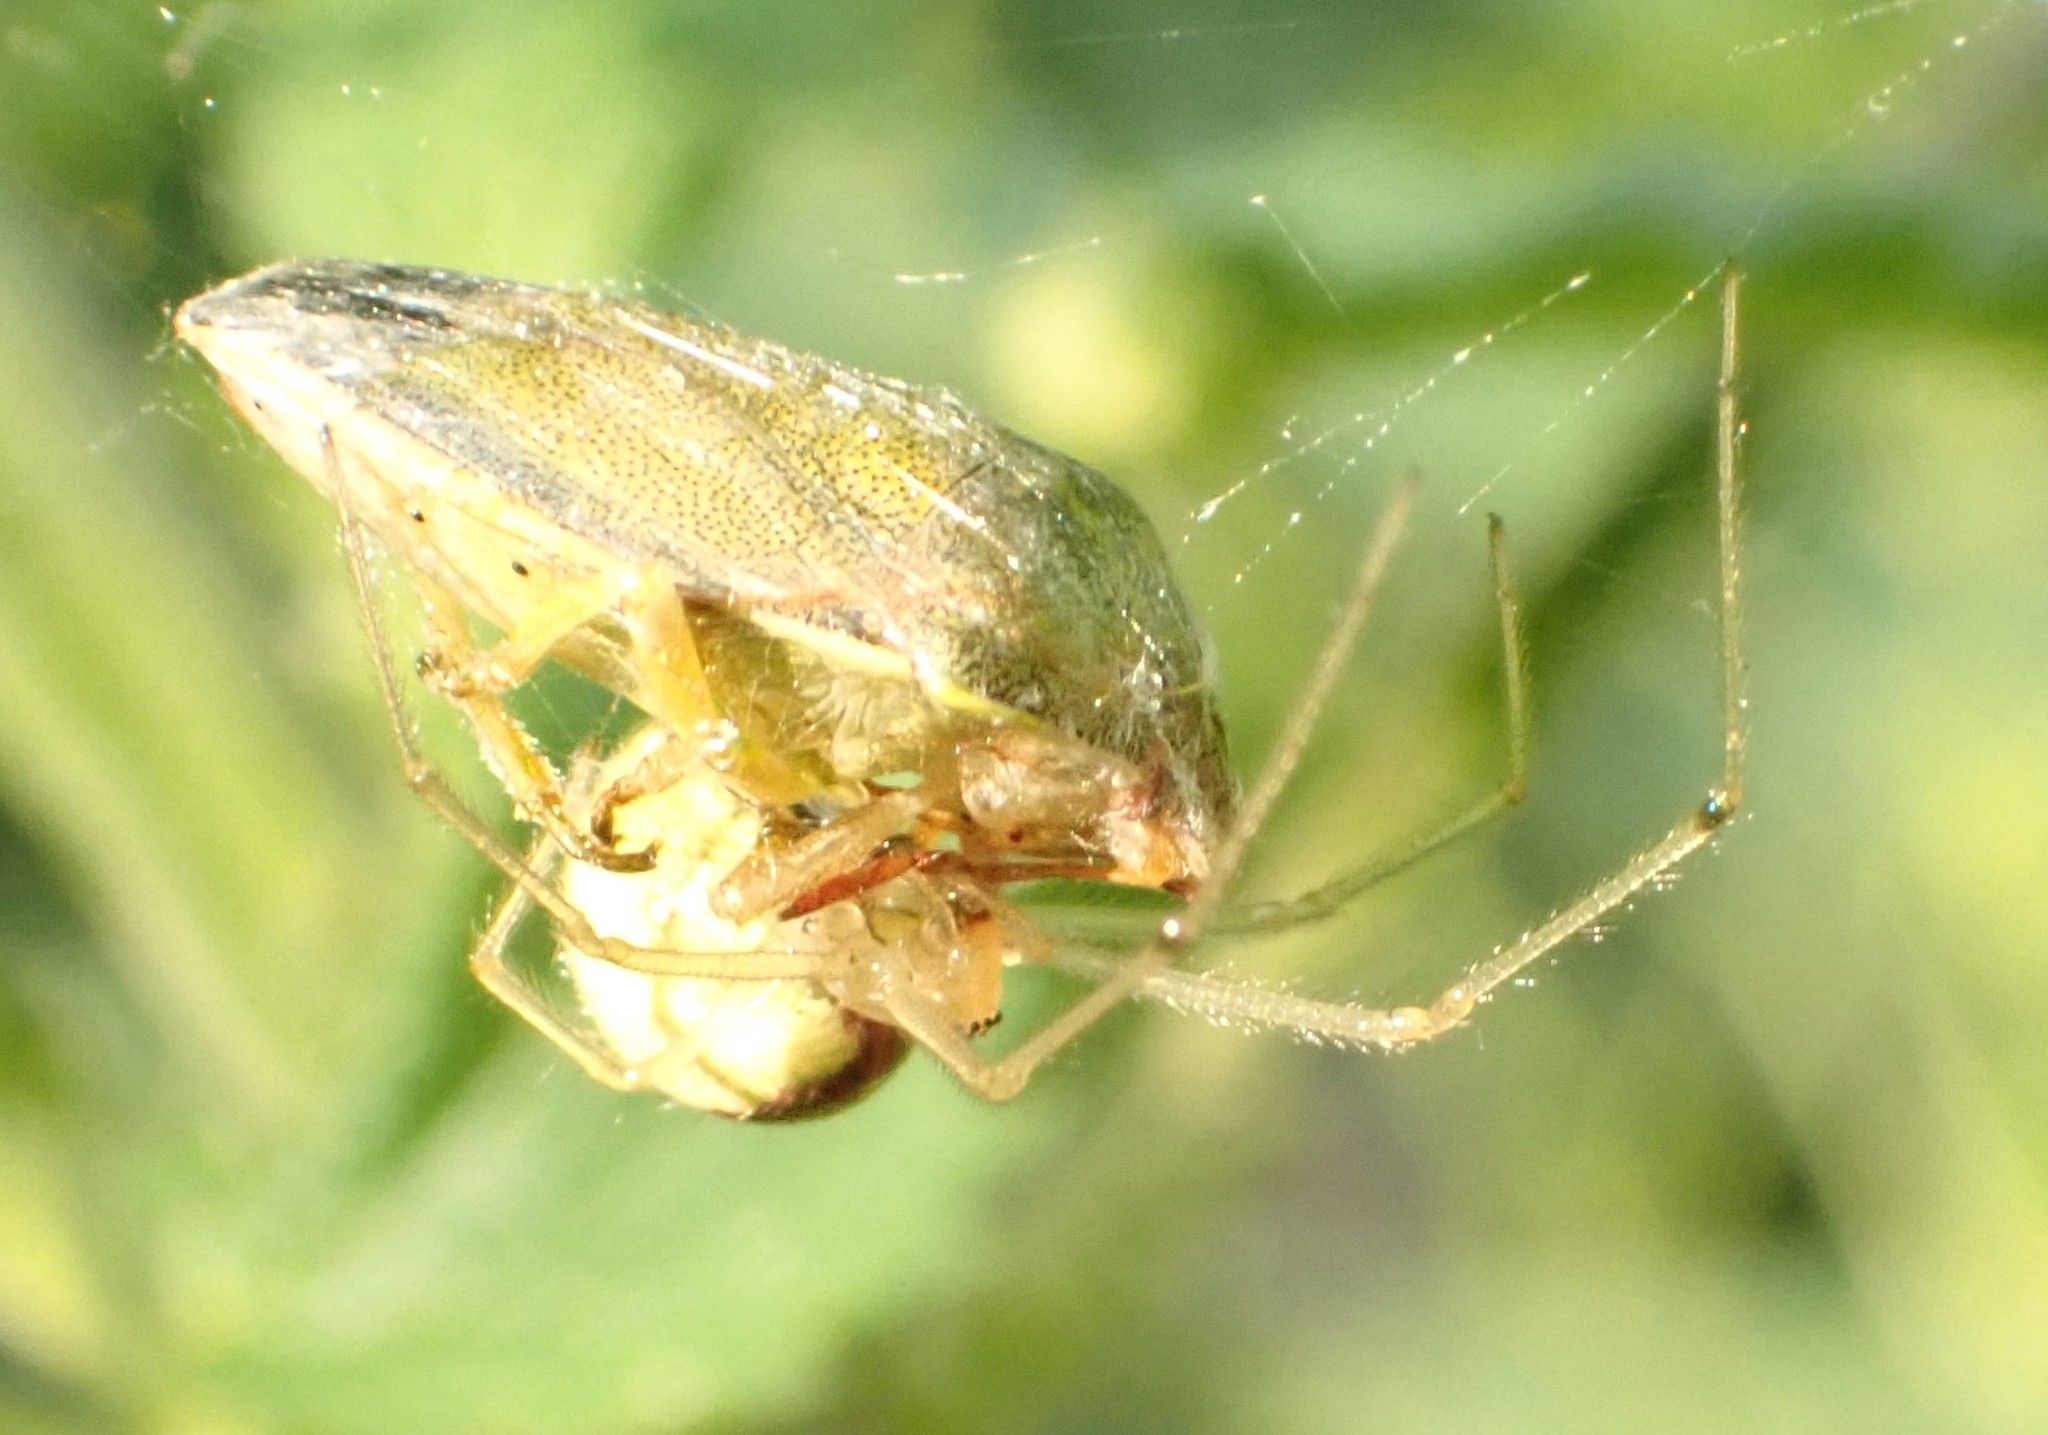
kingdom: Animalia
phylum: Arthropoda
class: Insecta
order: Hemiptera
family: Pentatomidae
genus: Piezodorus
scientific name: Piezodorus lituratus
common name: Stink bug
